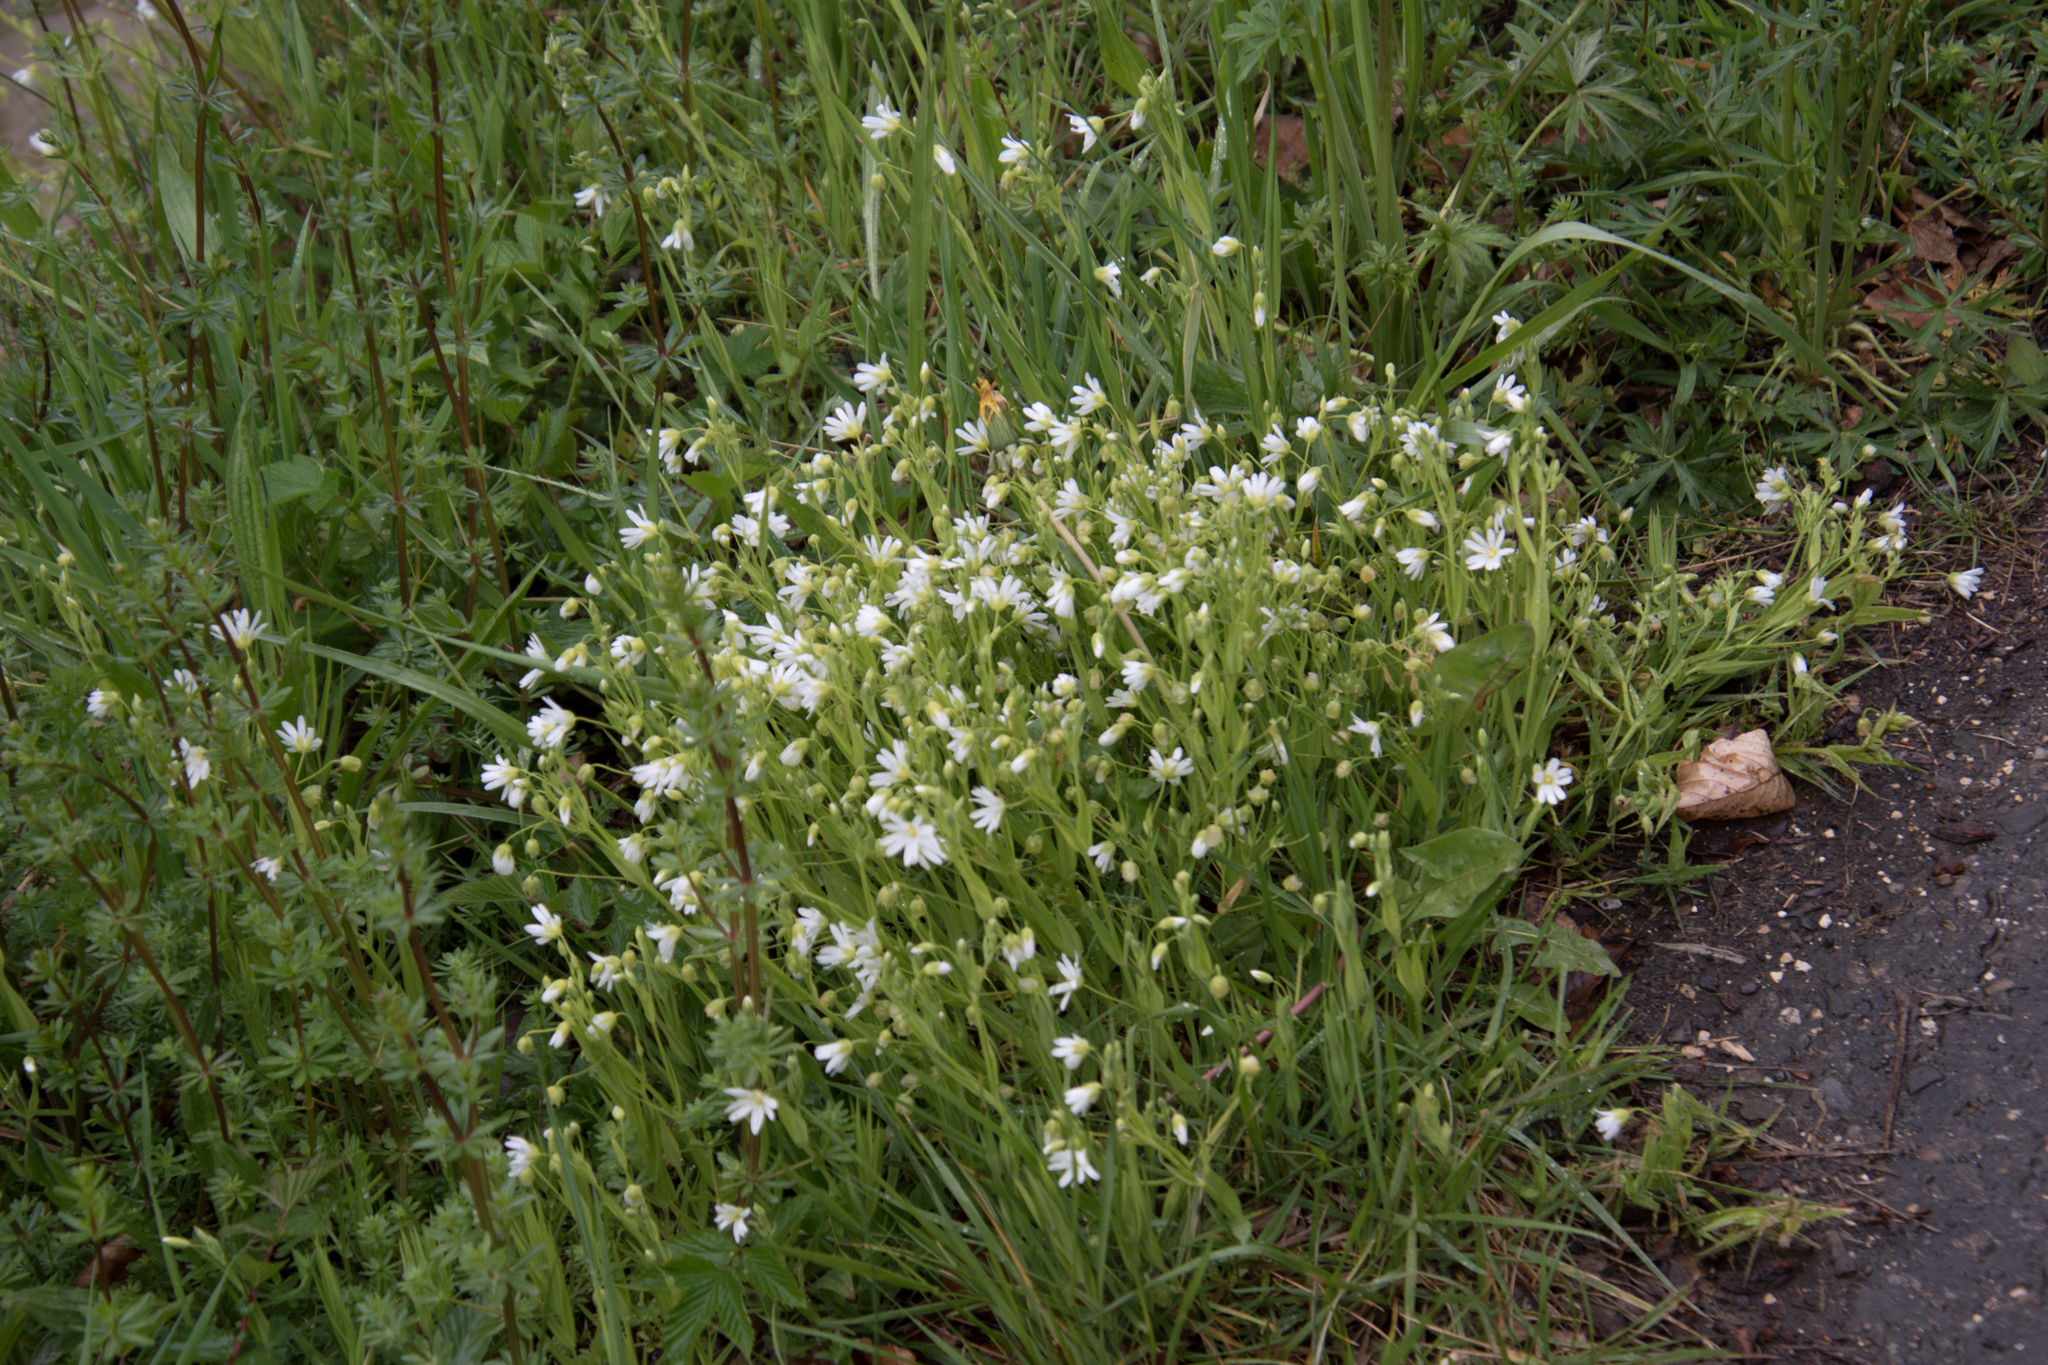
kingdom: Plantae
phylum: Tracheophyta
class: Magnoliopsida
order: Caryophyllales
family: Caryophyllaceae
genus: Rabelera
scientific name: Rabelera holostea
